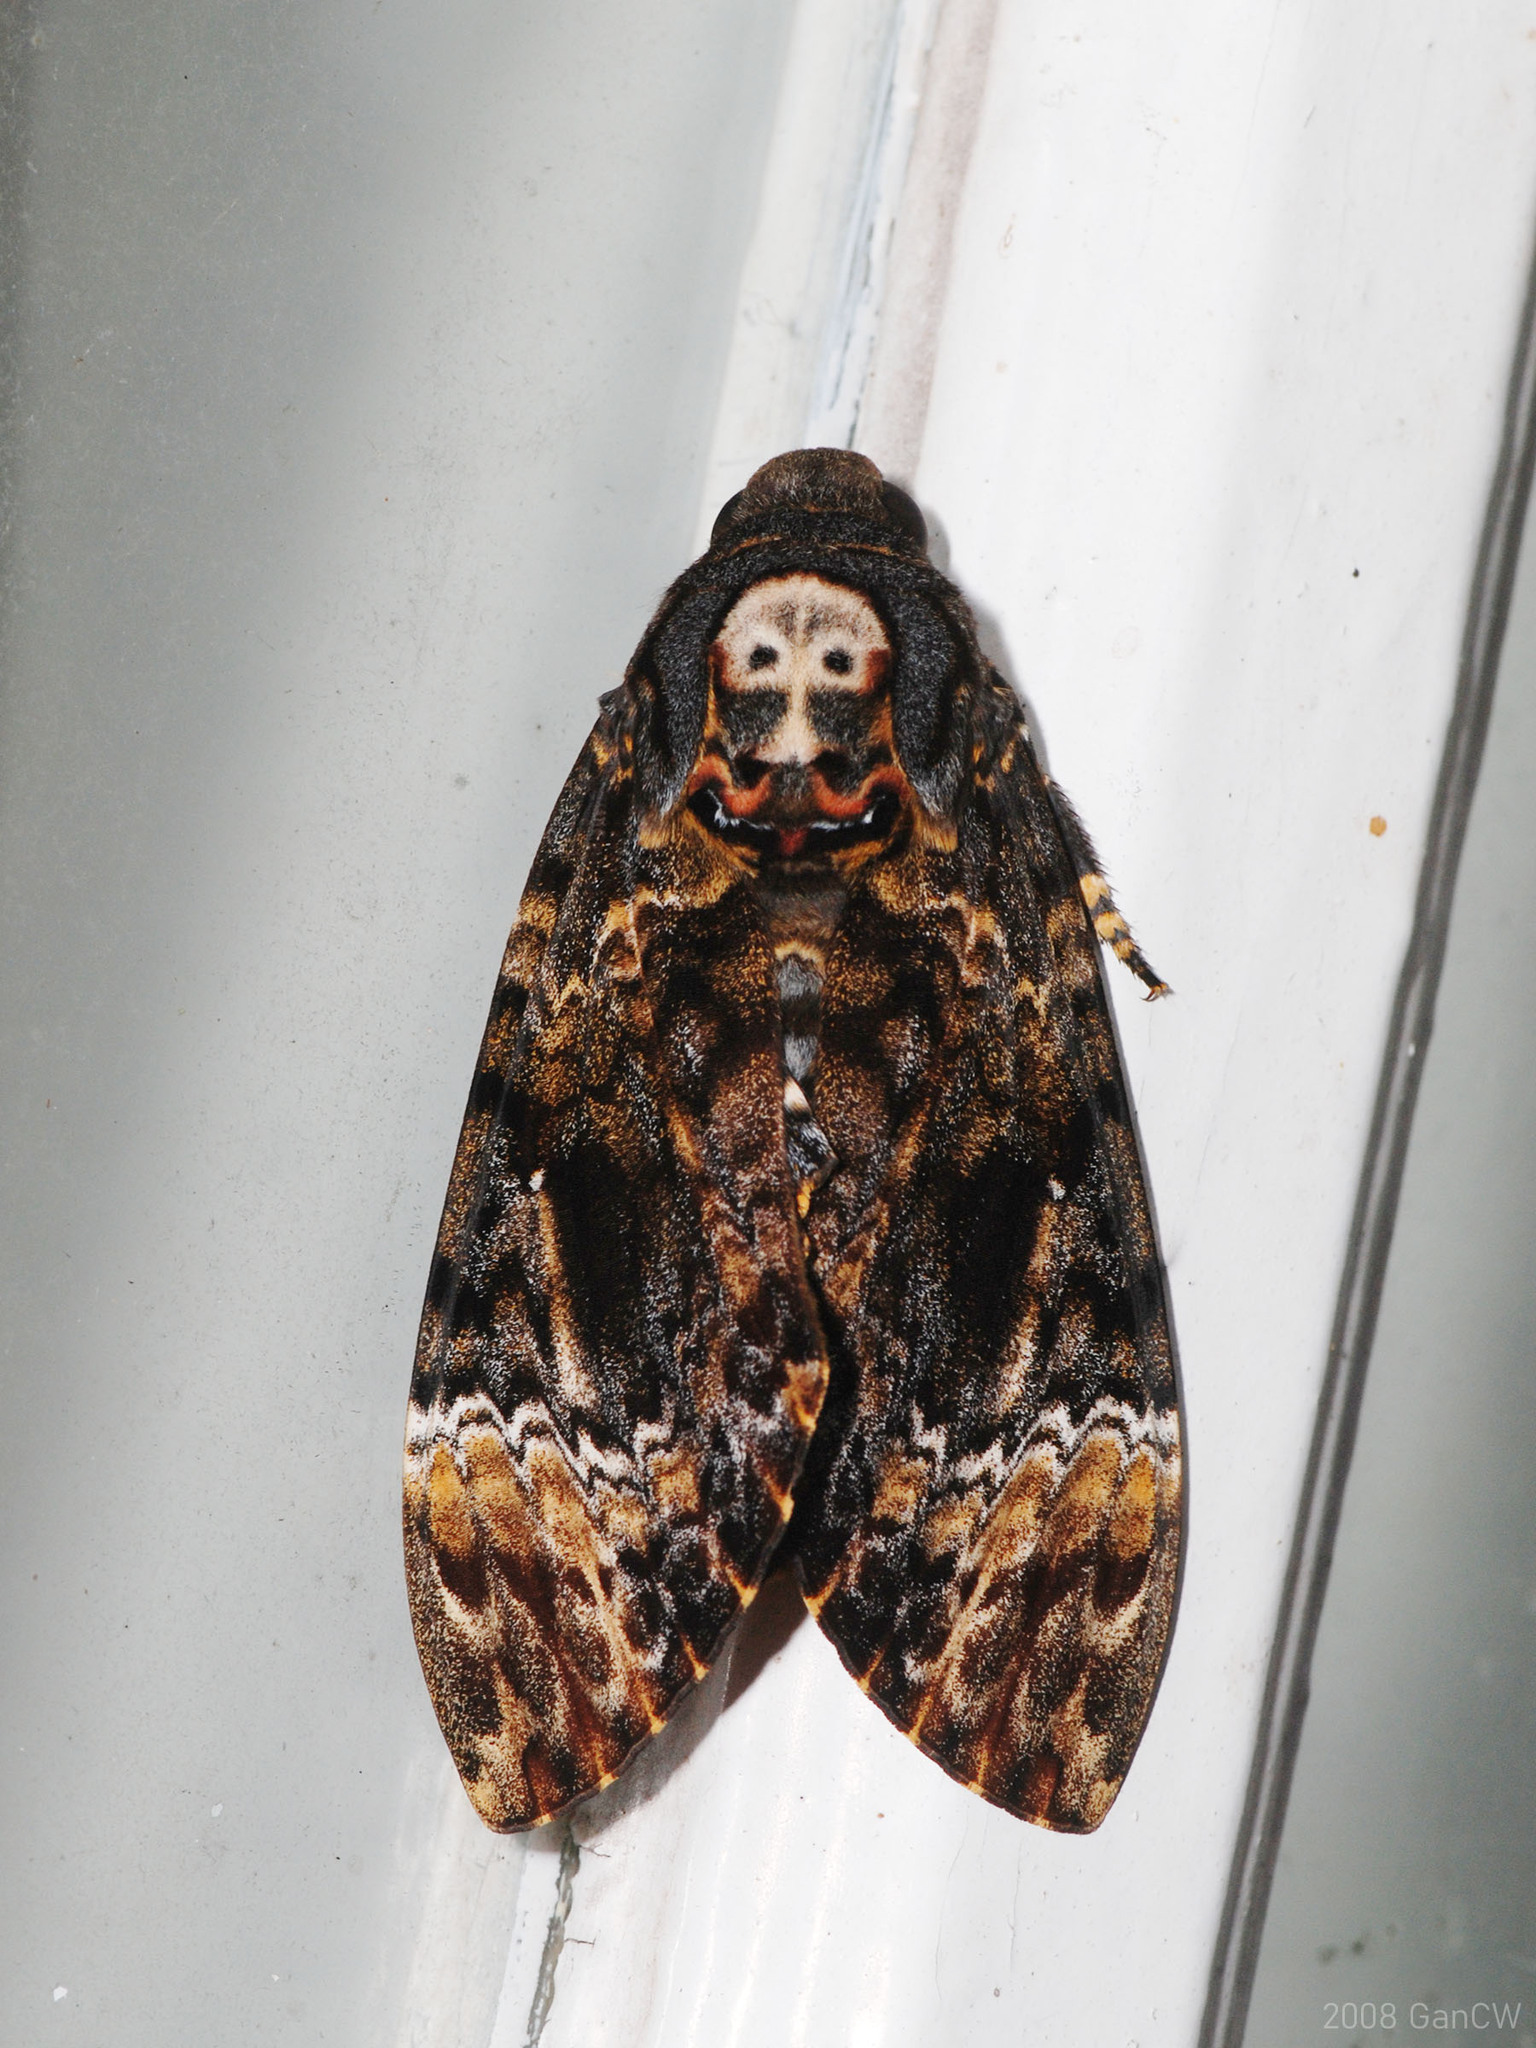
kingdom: Animalia
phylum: Arthropoda
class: Insecta
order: Lepidoptera
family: Sphingidae
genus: Acherontia
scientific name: Acherontia lachesis
